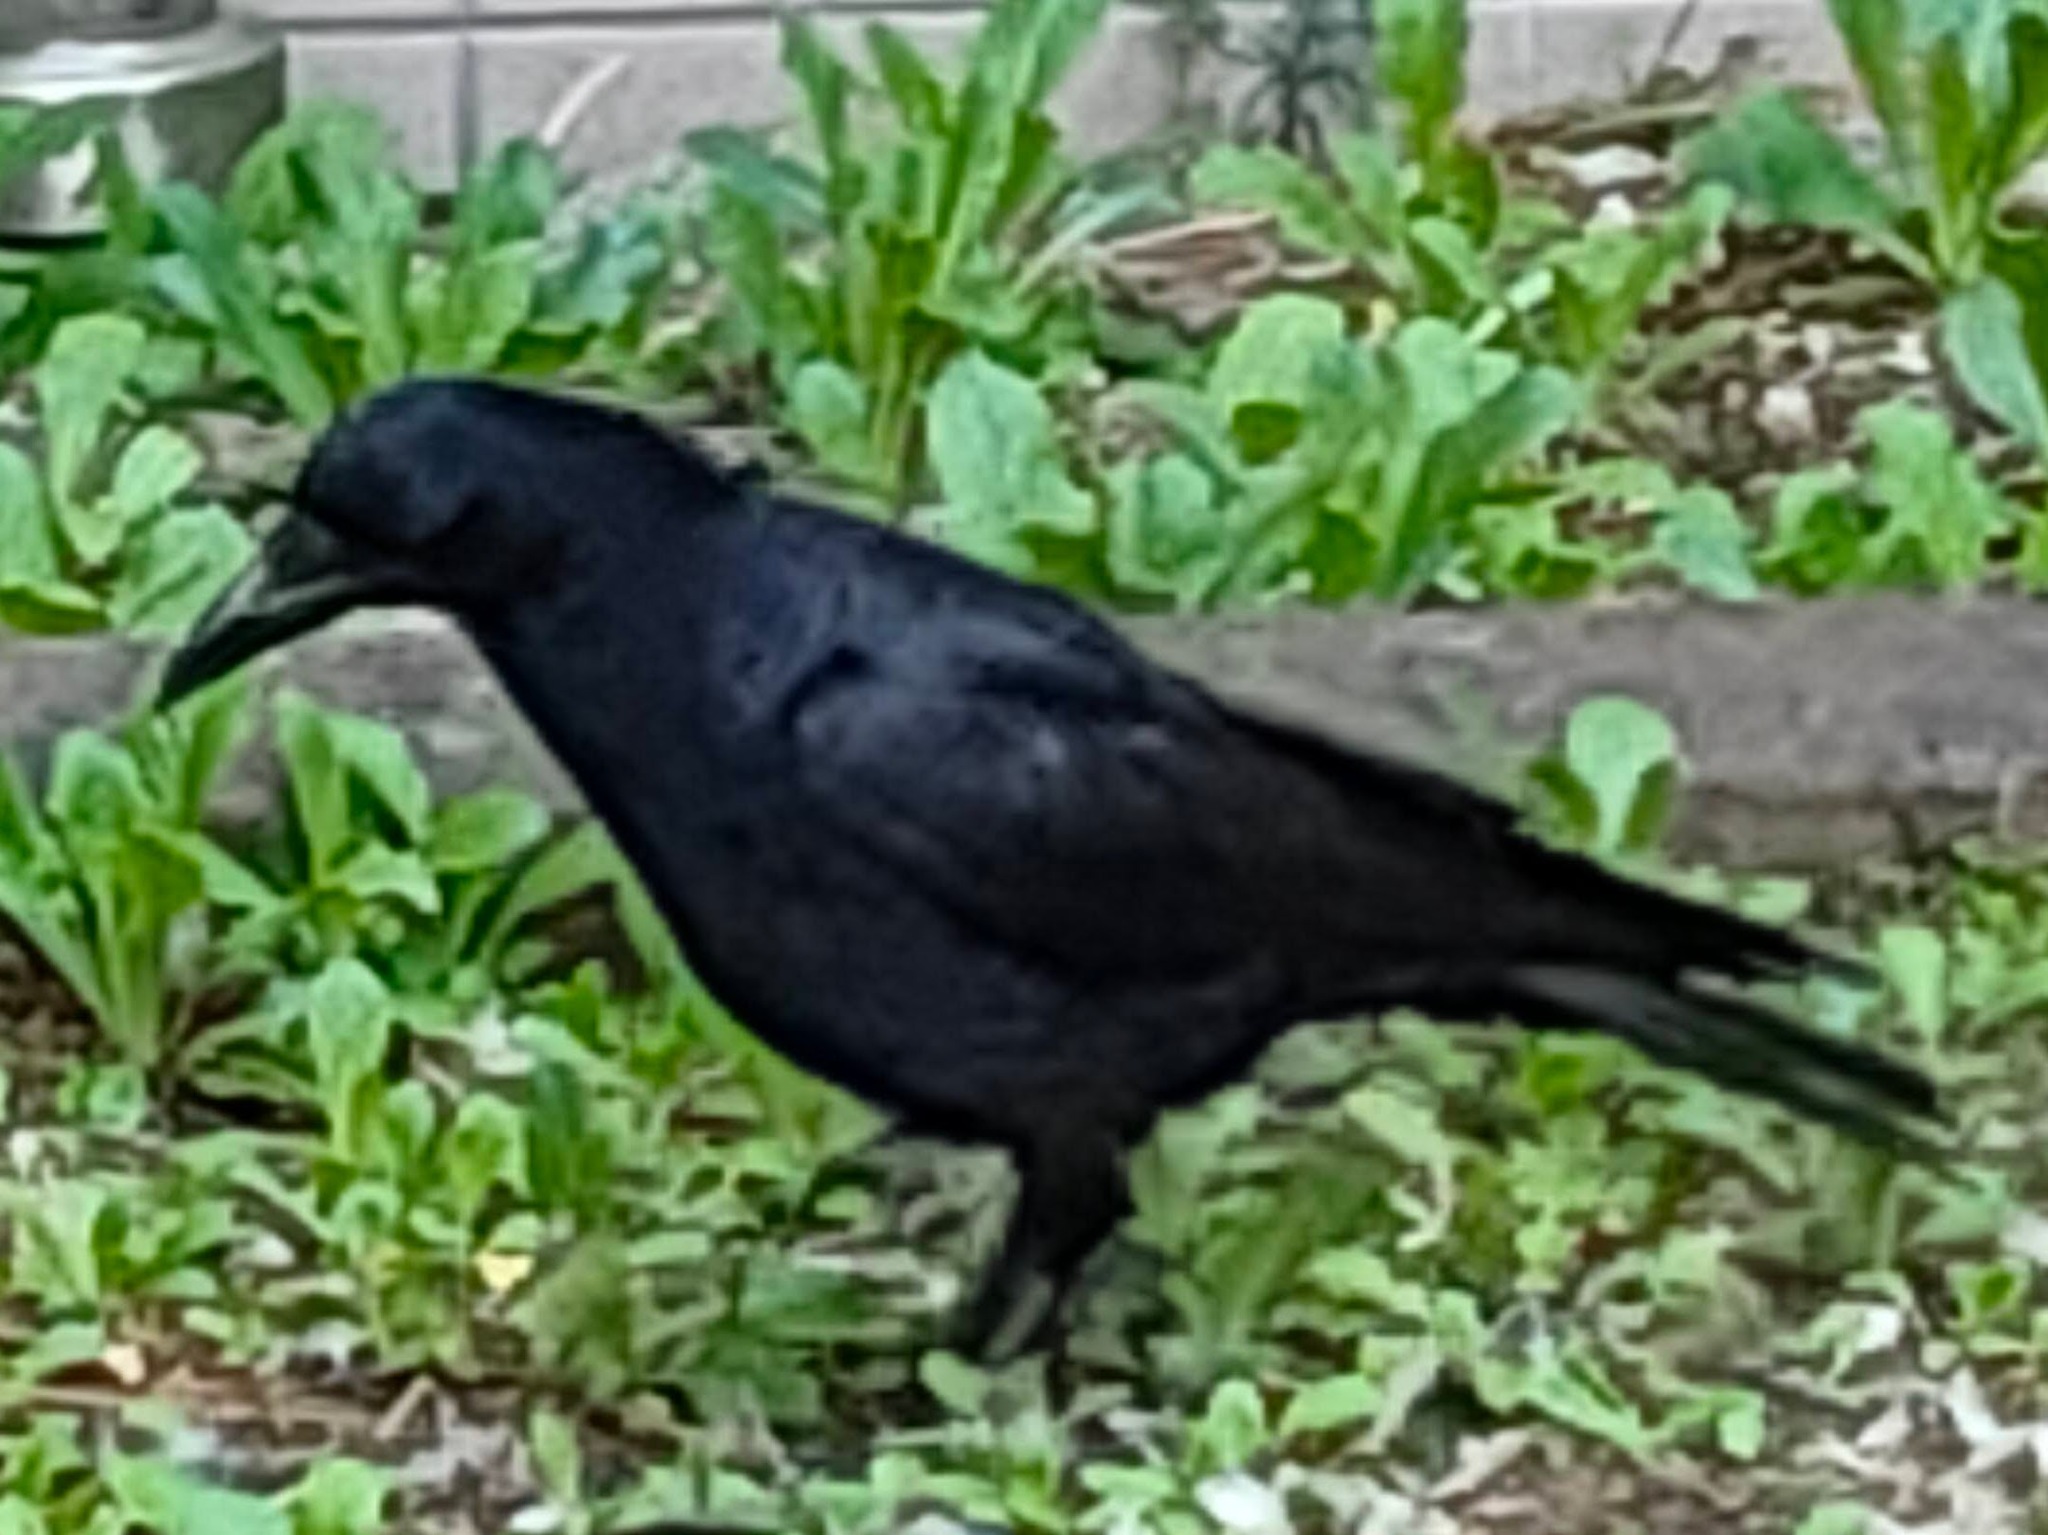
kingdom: Animalia
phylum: Chordata
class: Aves
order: Passeriformes
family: Corvidae
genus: Corvus
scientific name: Corvus corone
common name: Carrion crow
